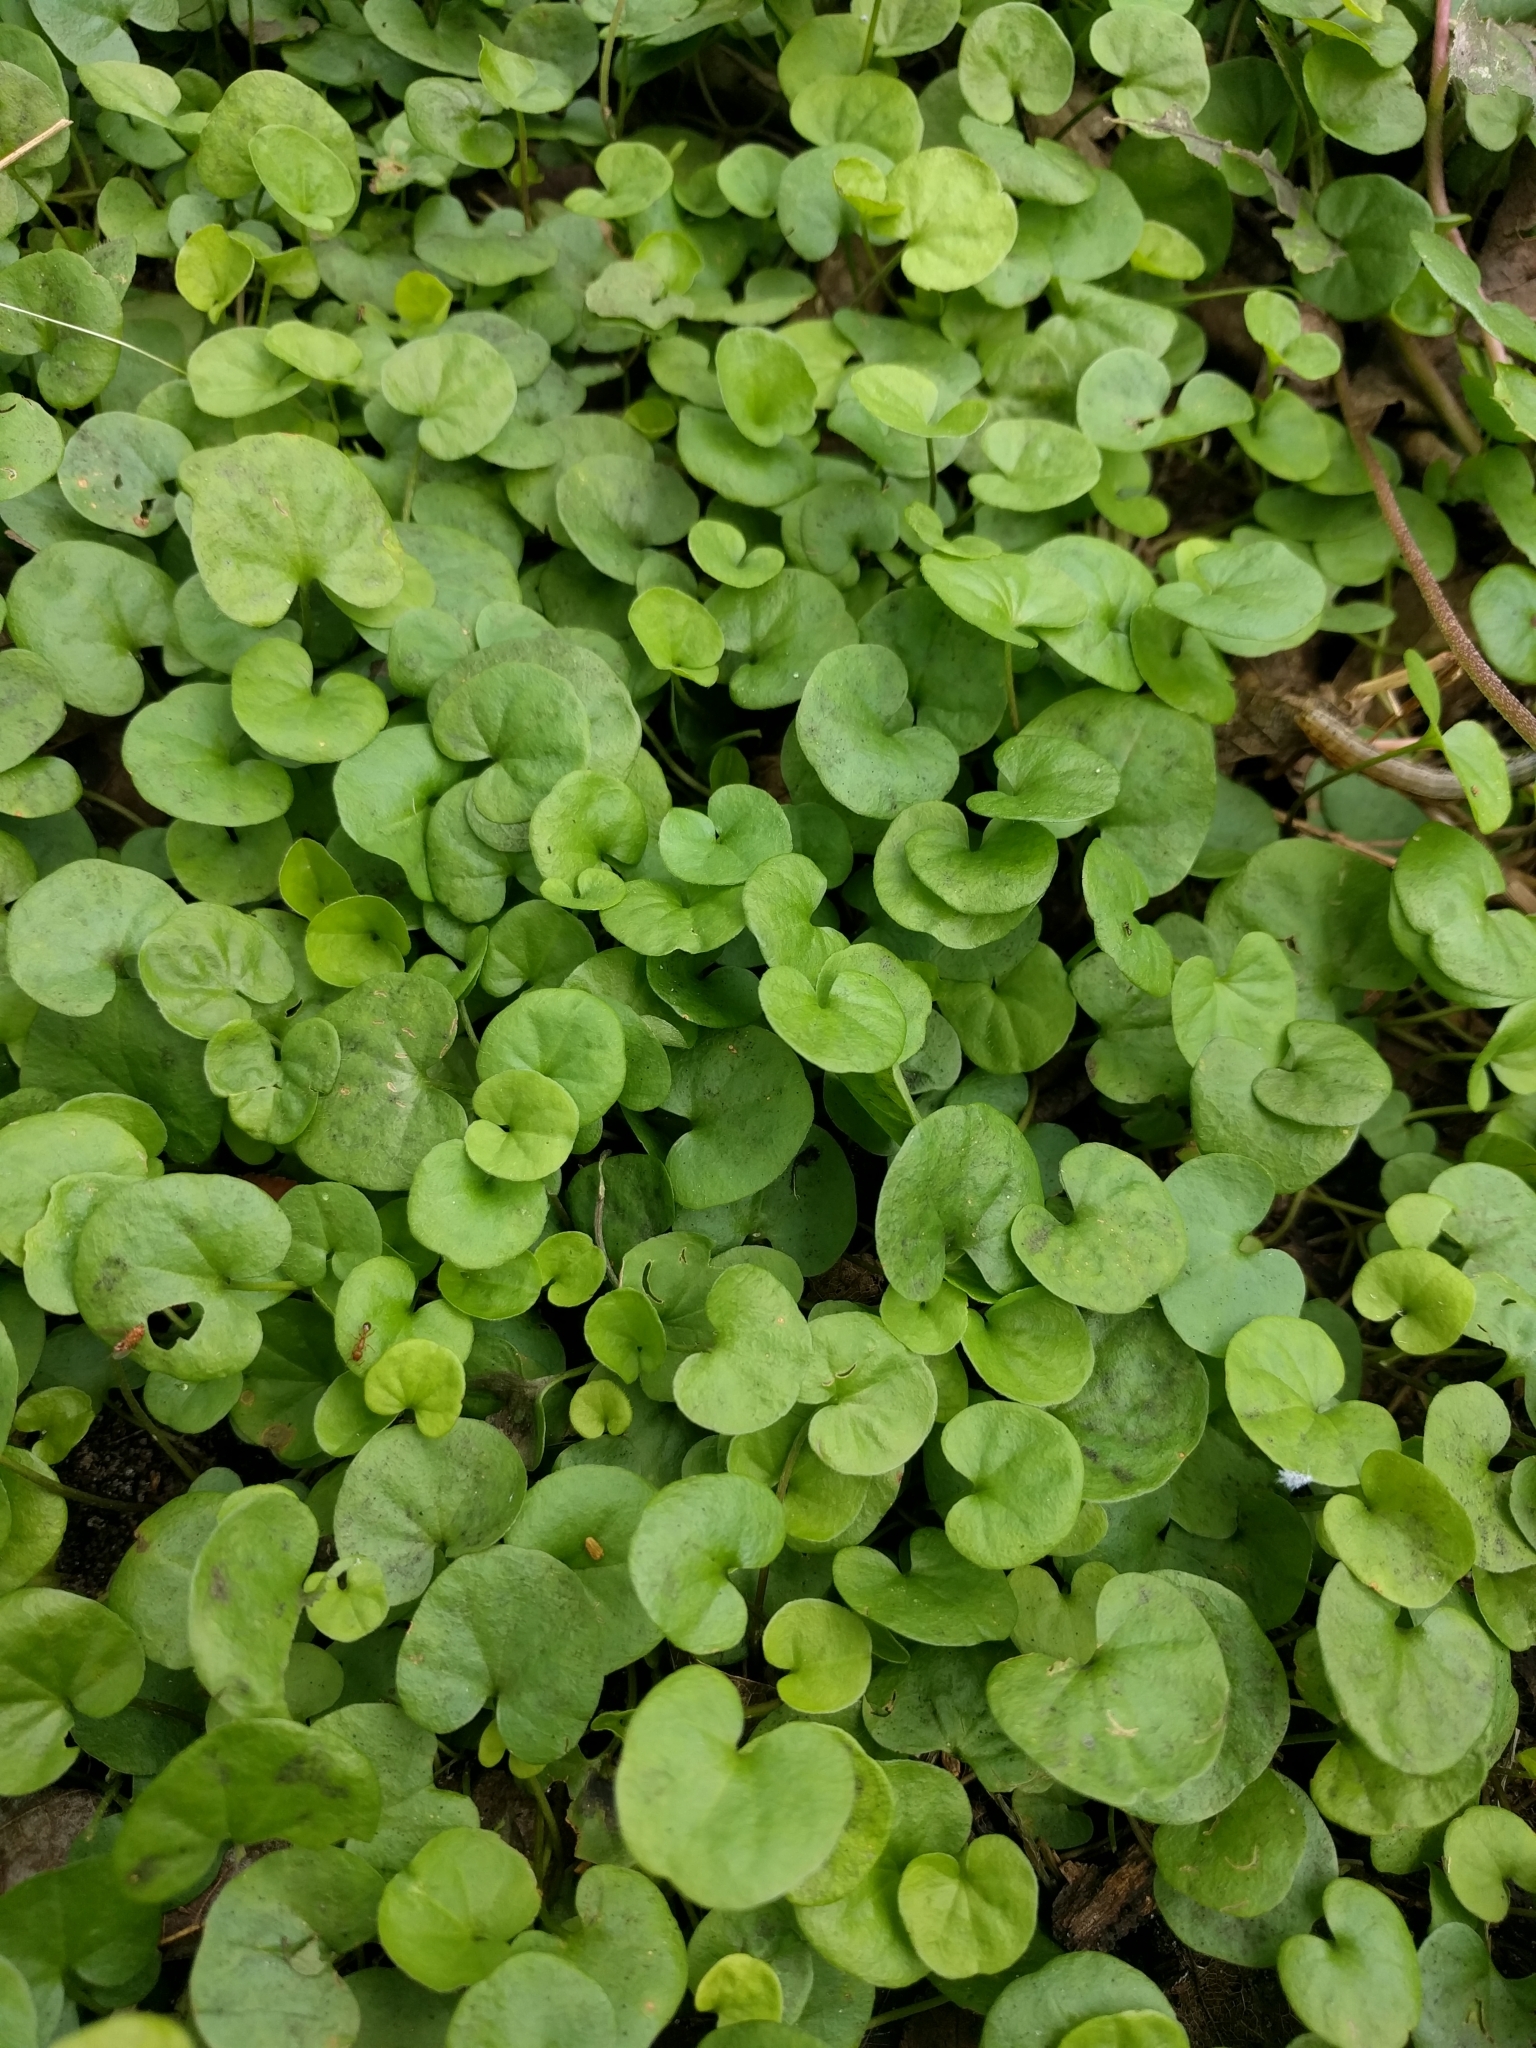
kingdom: Plantae
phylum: Tracheophyta
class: Magnoliopsida
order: Solanales
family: Convolvulaceae
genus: Dichondra
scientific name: Dichondra carolinensis
